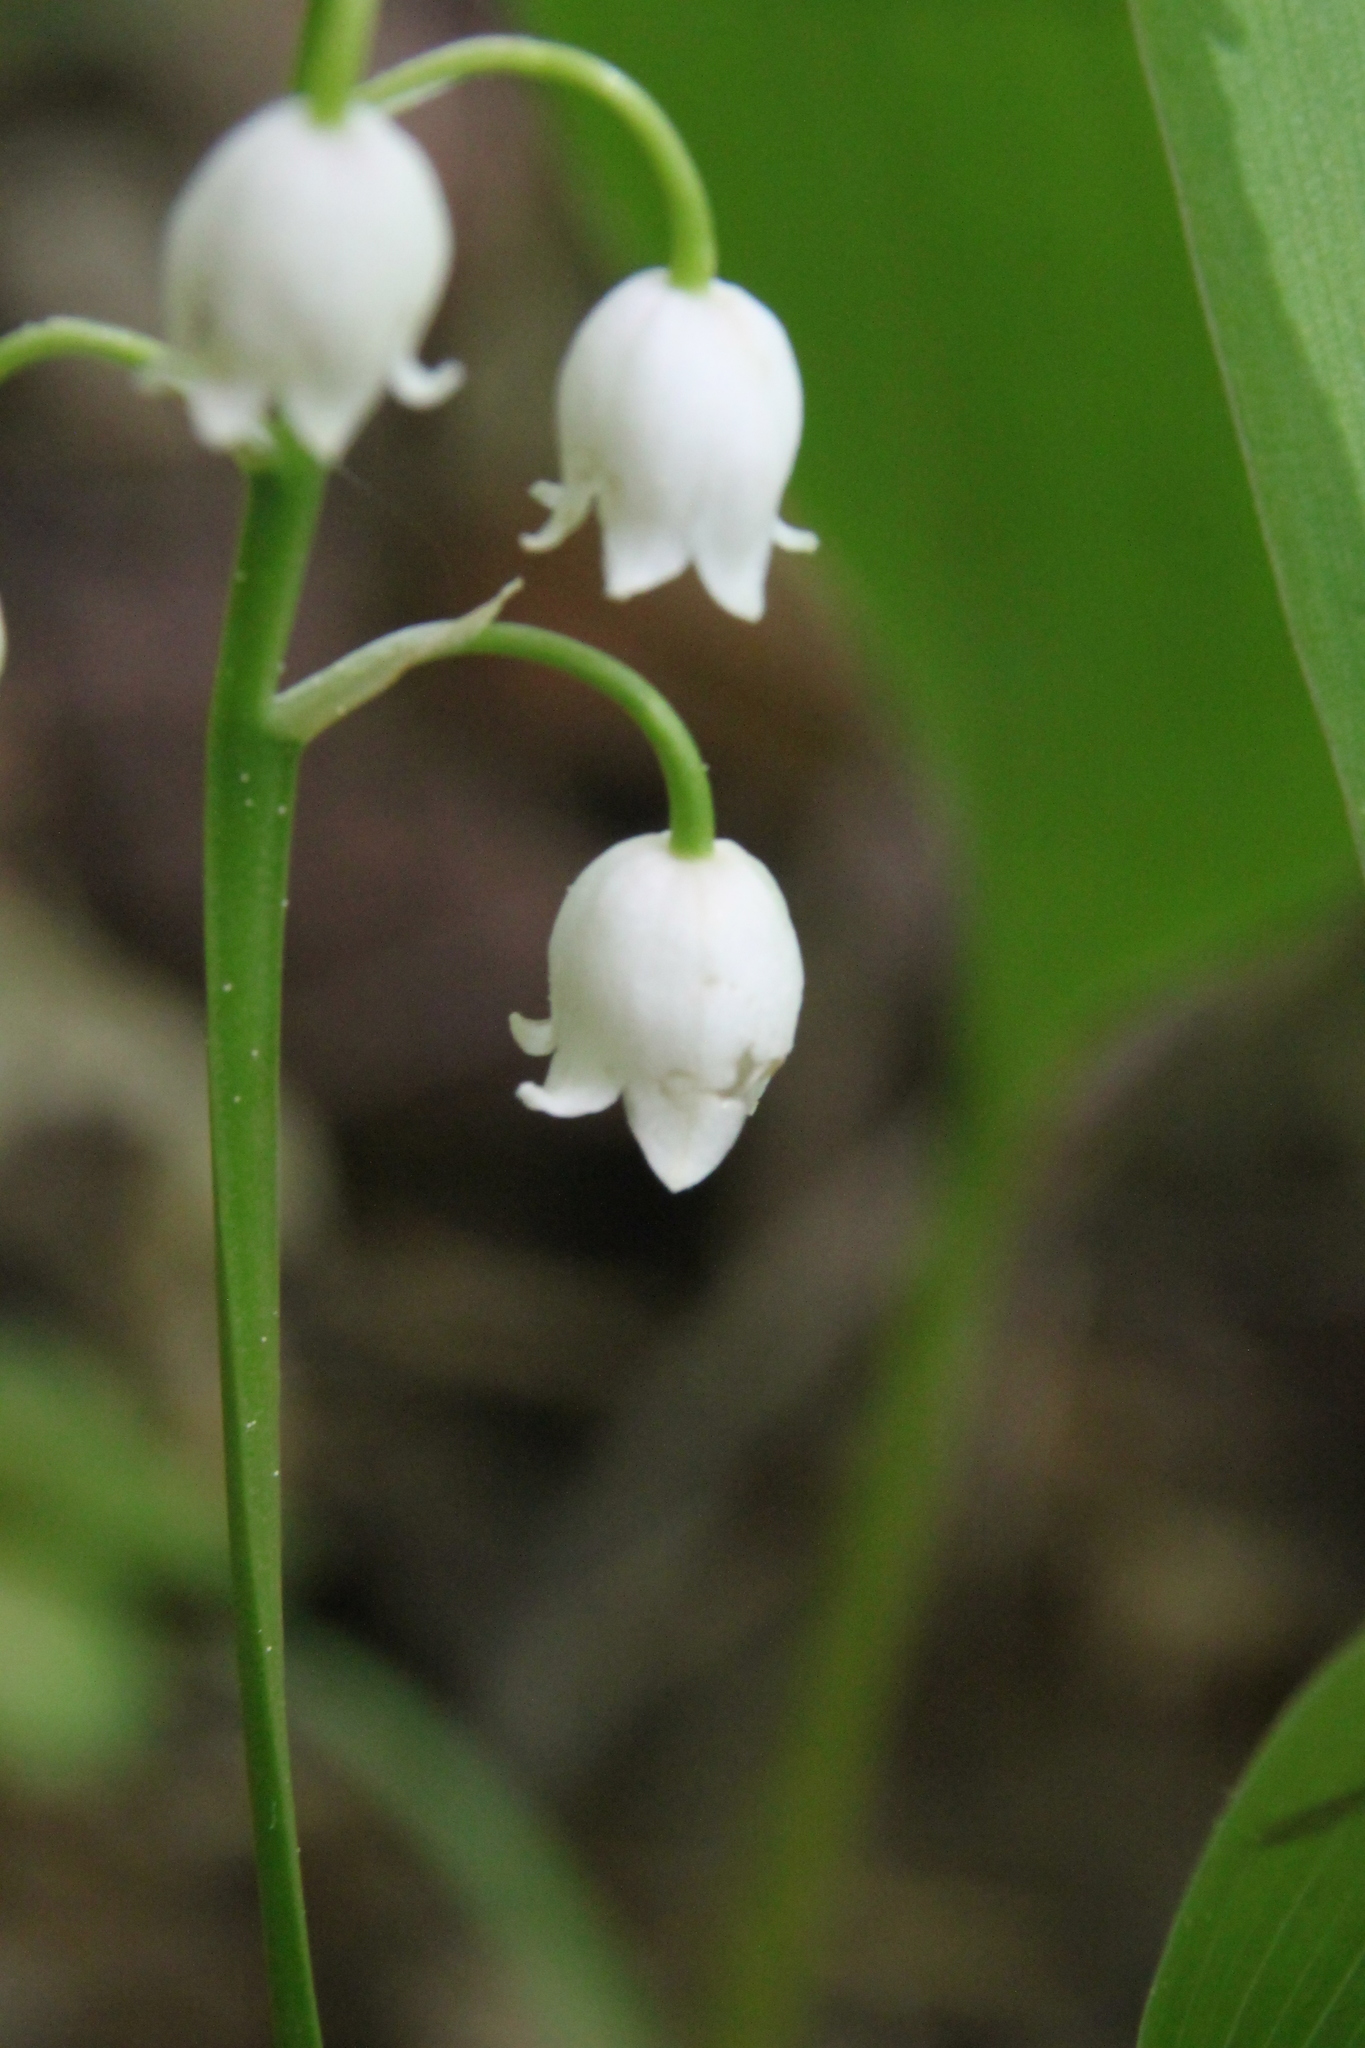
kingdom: Plantae
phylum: Tracheophyta
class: Liliopsida
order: Asparagales
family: Asparagaceae
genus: Convallaria
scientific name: Convallaria majalis
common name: Lily-of-the-valley
